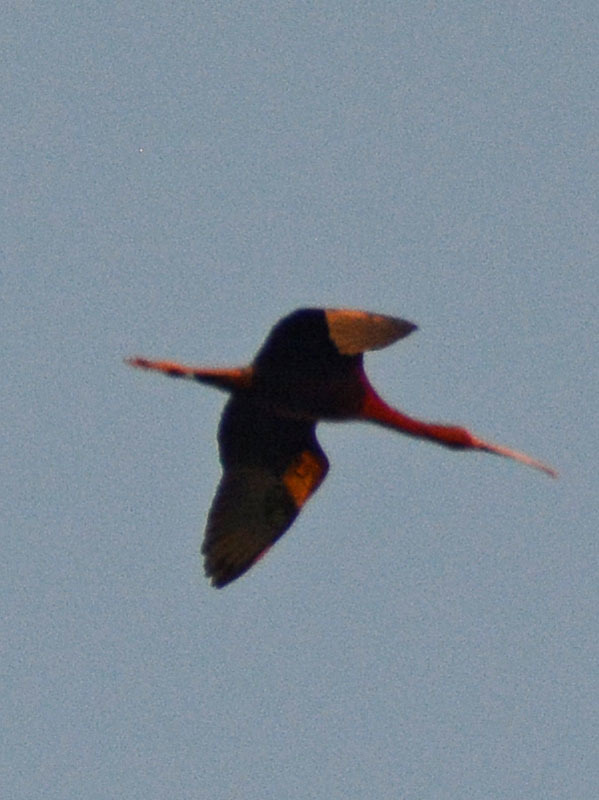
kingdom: Animalia
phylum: Chordata
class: Aves
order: Pelecaniformes
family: Threskiornithidae
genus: Plegadis
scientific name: Plegadis chihi
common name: White-faced ibis
